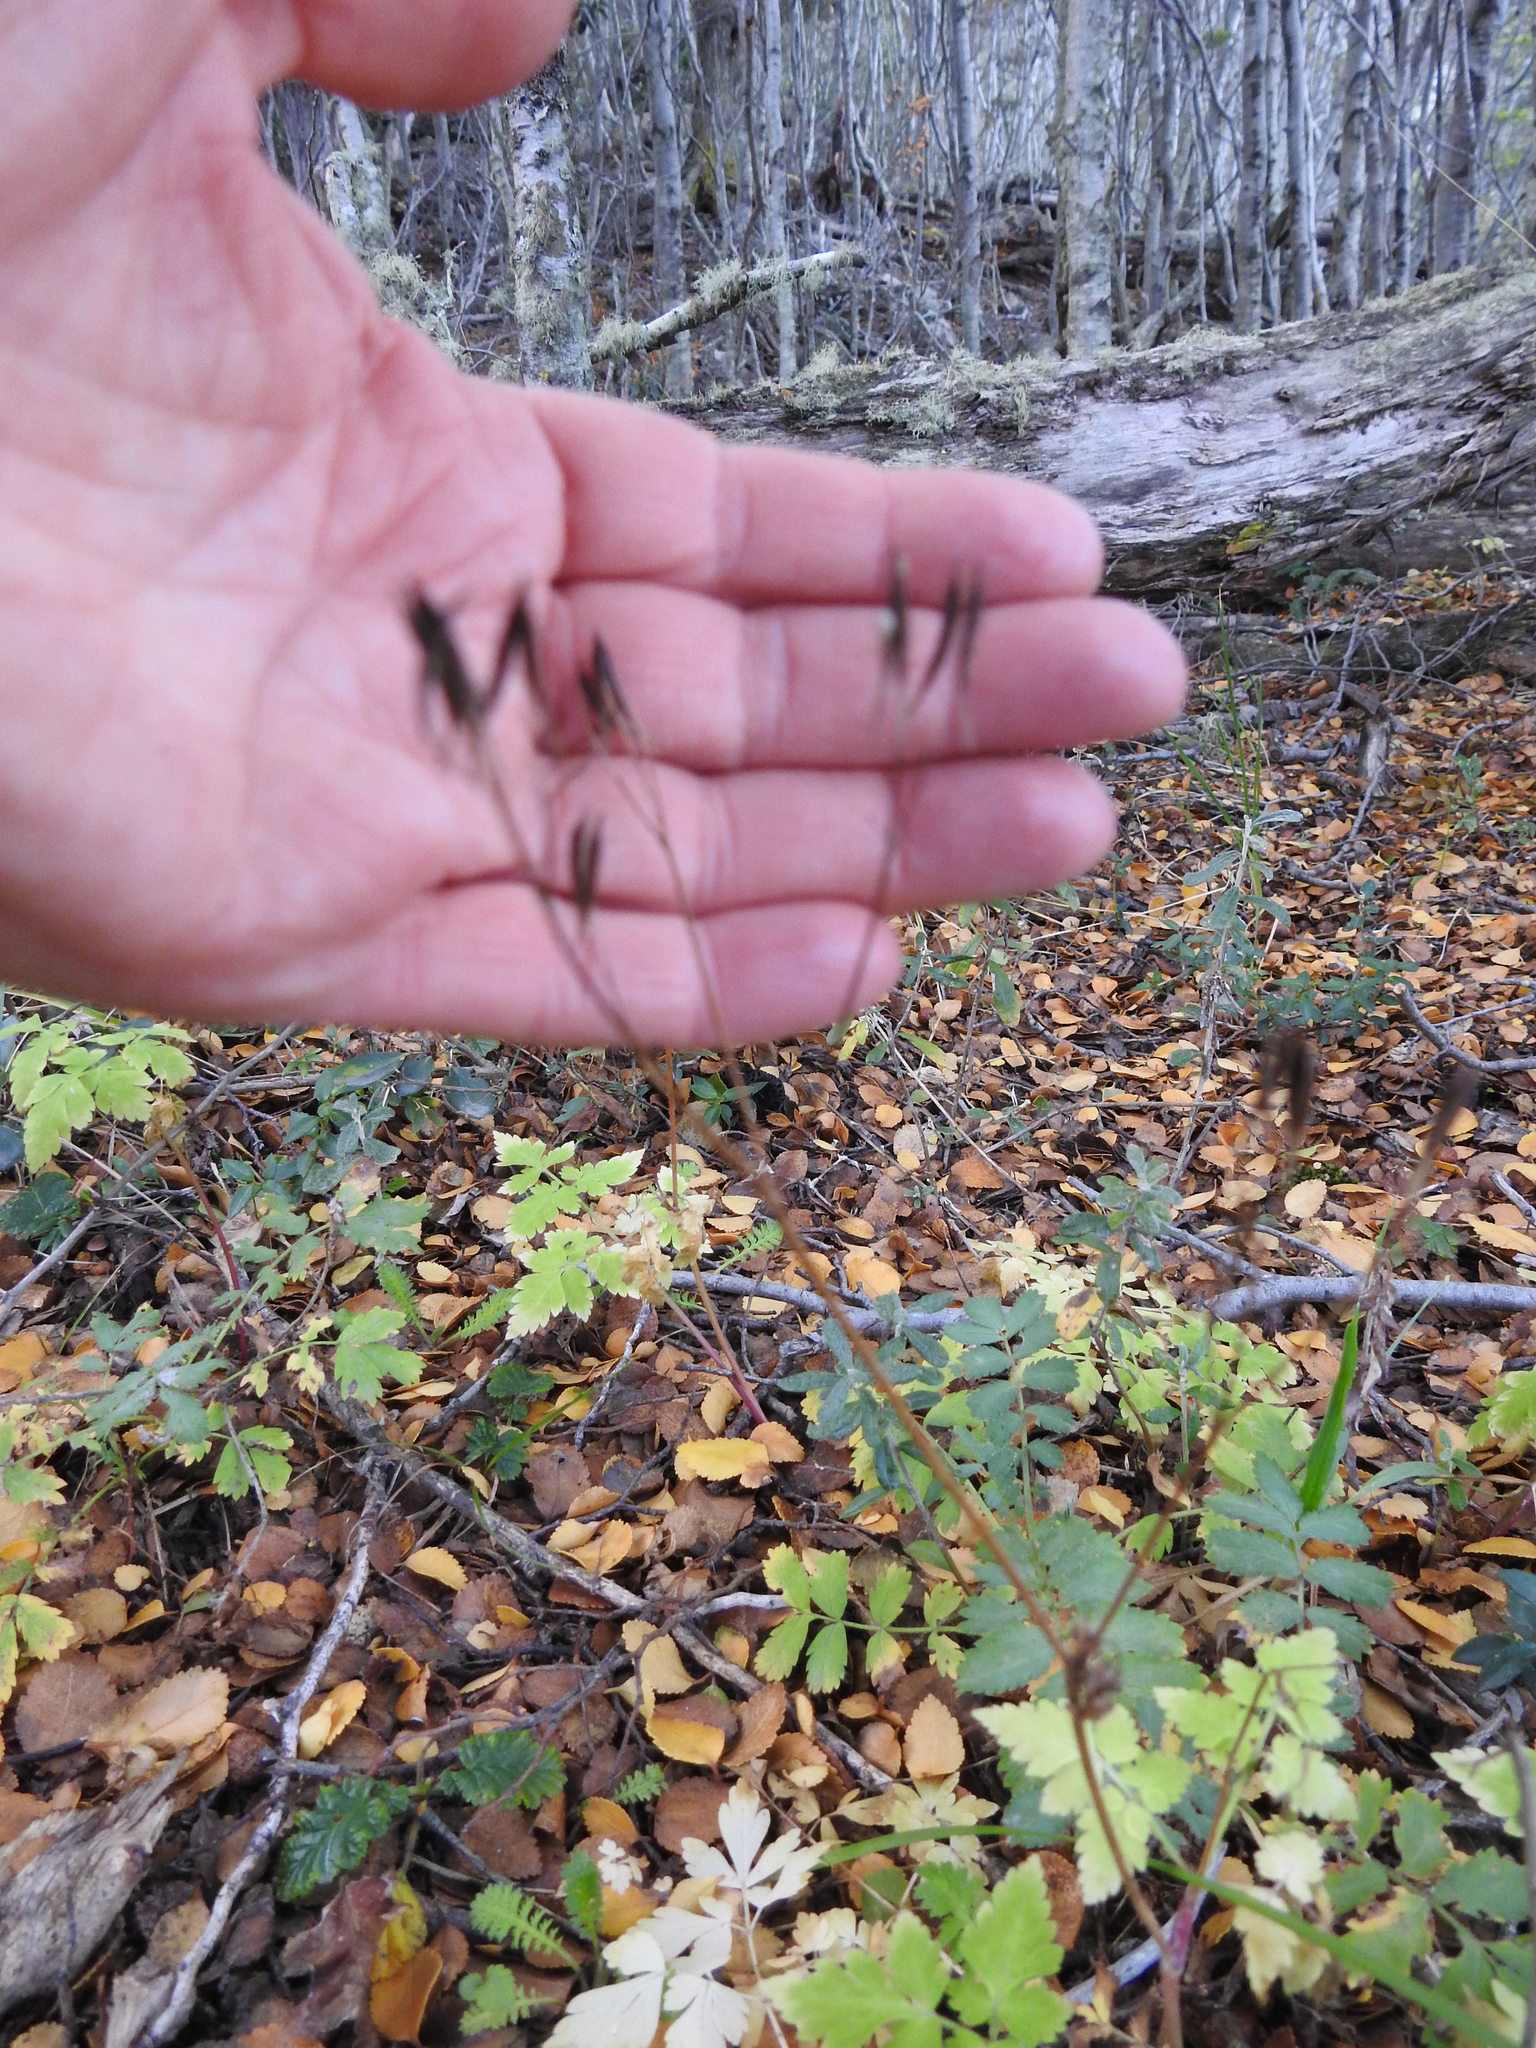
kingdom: Plantae
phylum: Tracheophyta
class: Magnoliopsida
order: Apiales
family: Apiaceae
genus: Osmorhiza
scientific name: Osmorhiza berteroi
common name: Mountain sweet cicely
